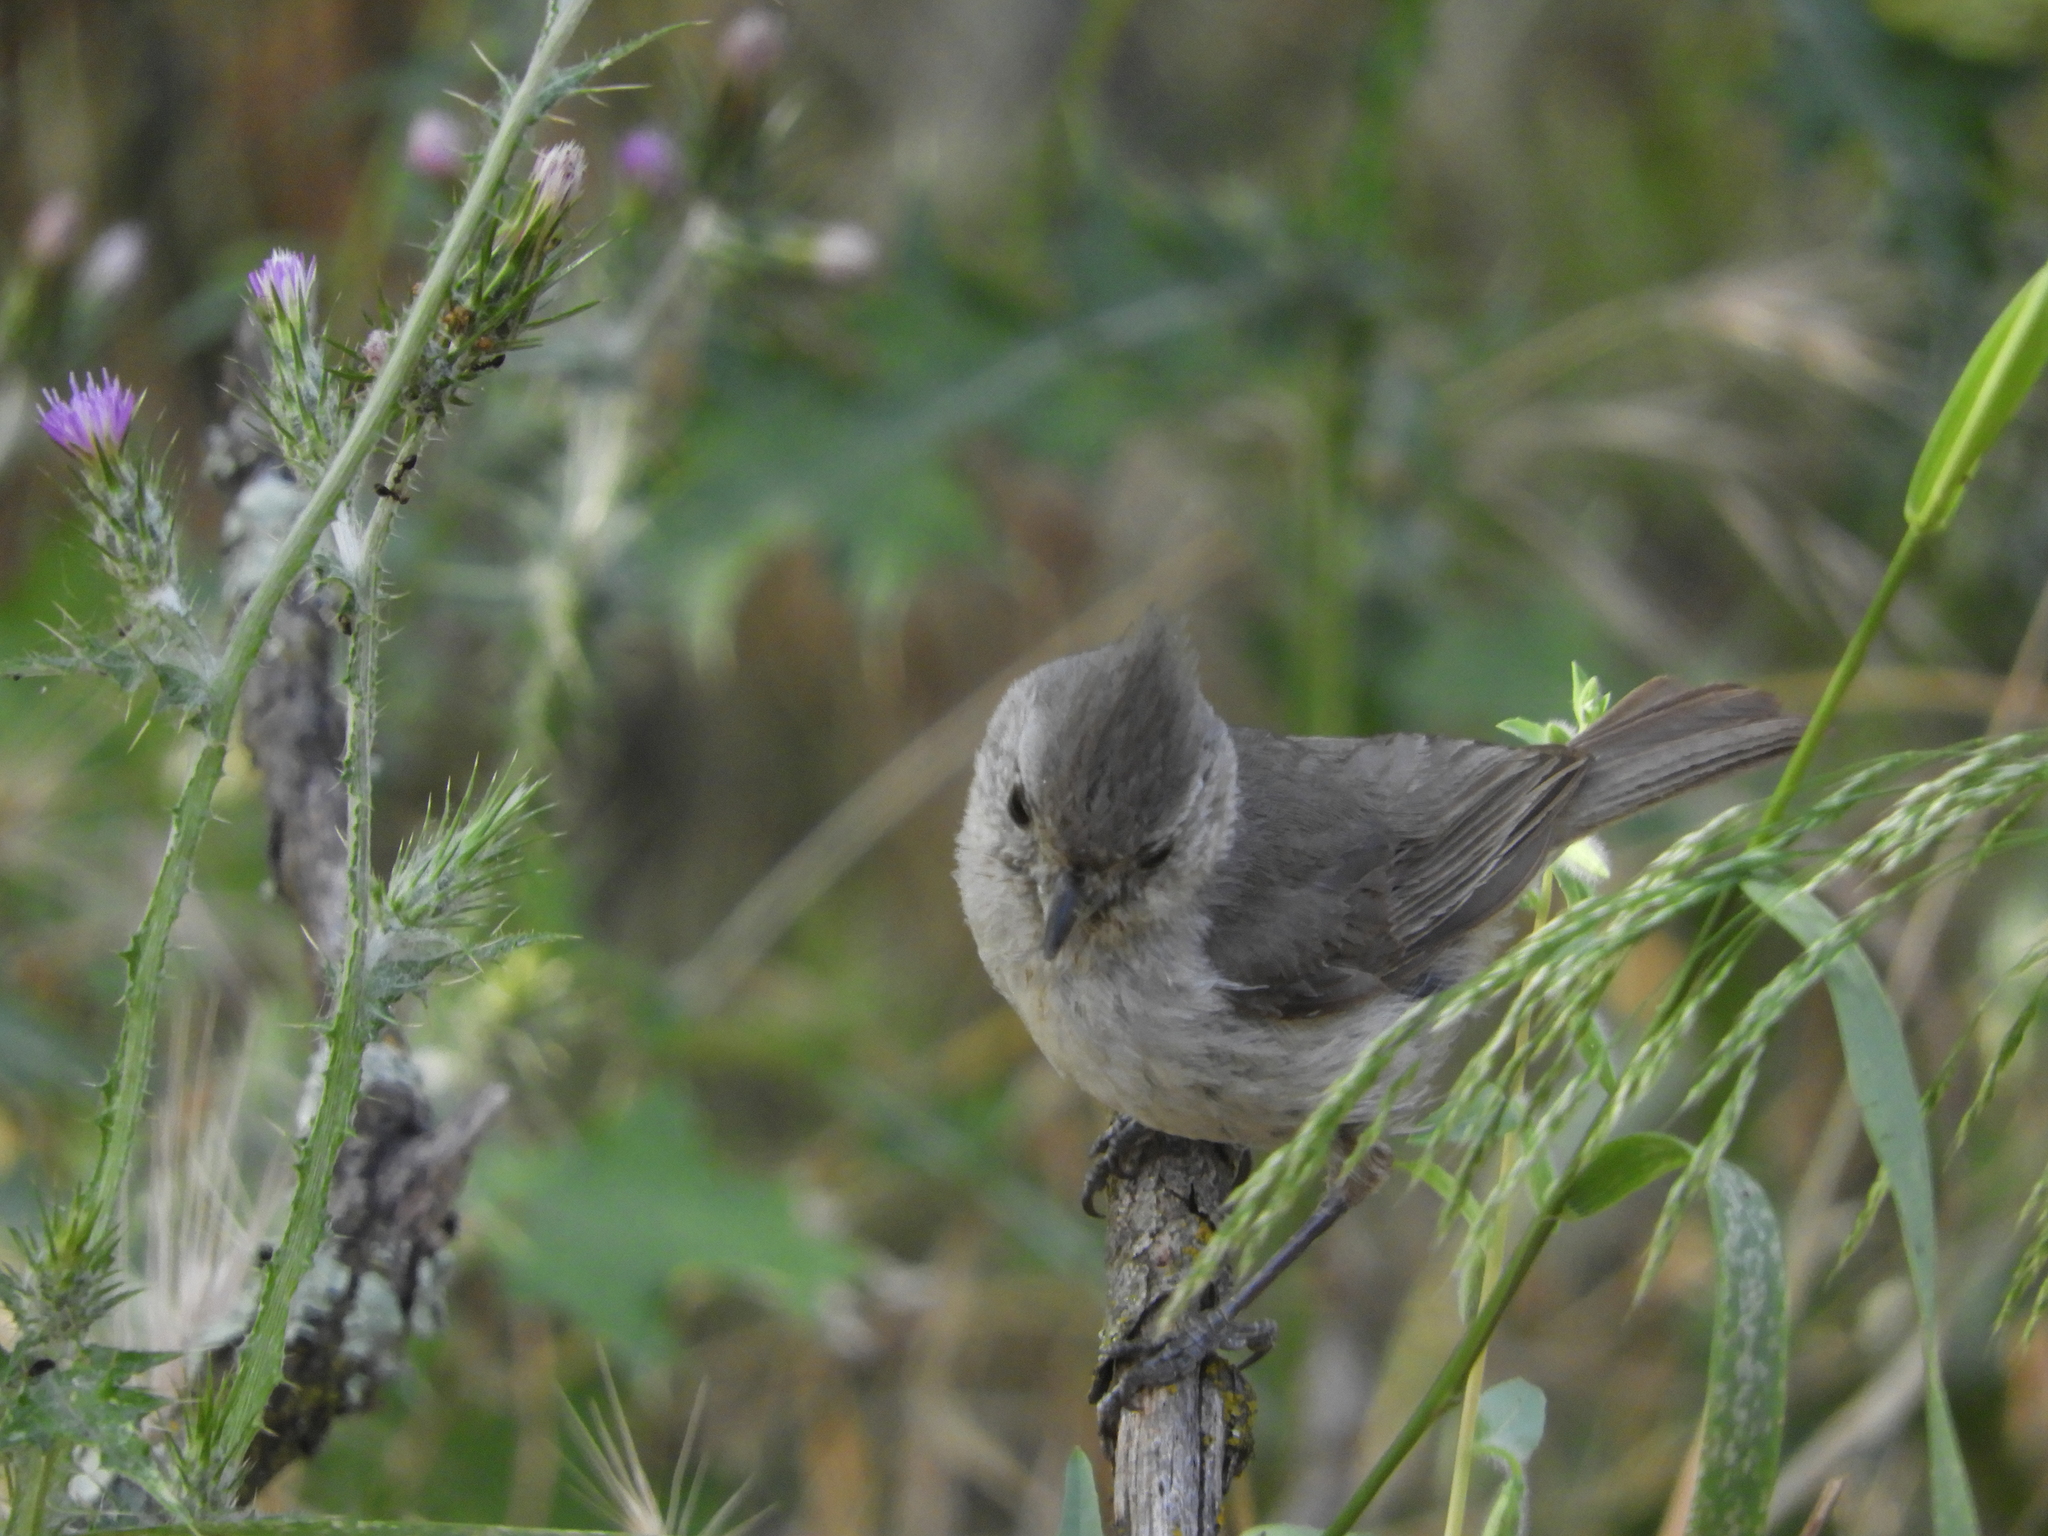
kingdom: Animalia
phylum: Chordata
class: Aves
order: Passeriformes
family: Paridae
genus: Baeolophus
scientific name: Baeolophus inornatus
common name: Oak titmouse
